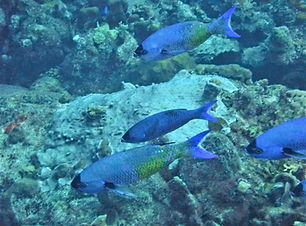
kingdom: Animalia
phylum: Chordata
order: Perciformes
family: Labridae
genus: Bodianus
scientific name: Bodianus
